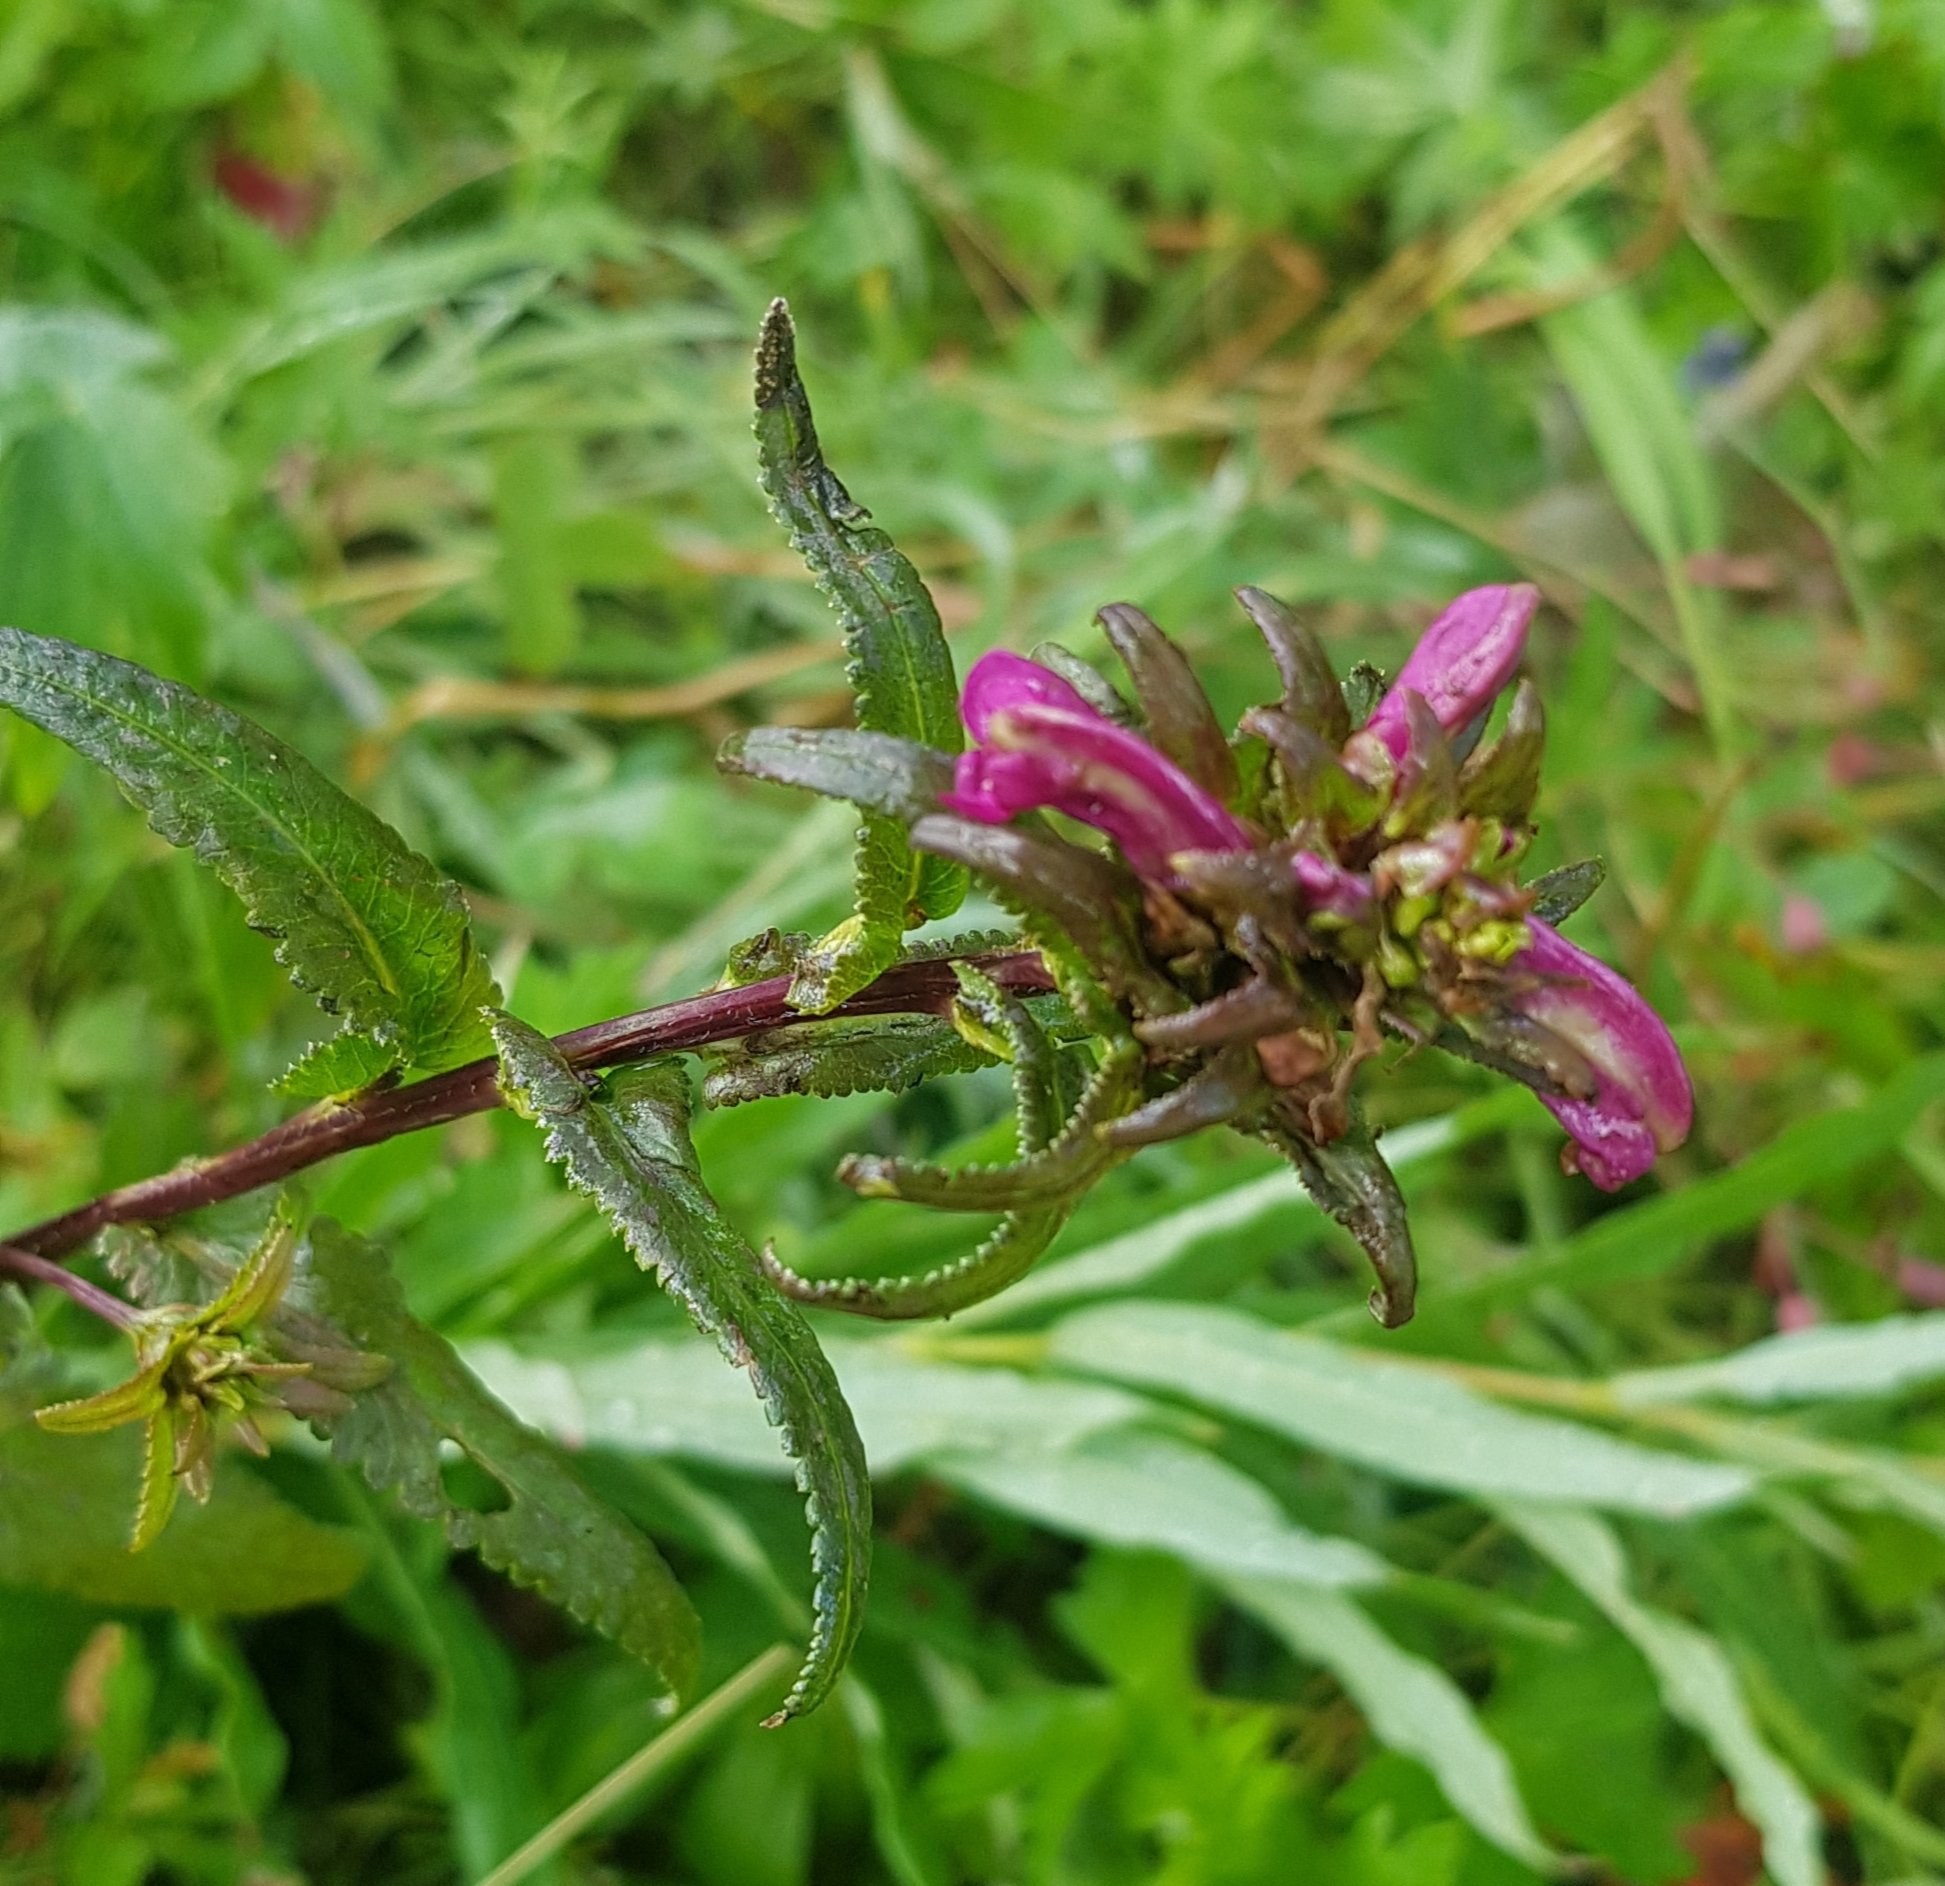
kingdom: Plantae
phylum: Tracheophyta
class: Magnoliopsida
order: Lamiales
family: Orobanchaceae
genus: Pedicularis
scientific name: Pedicularis resupinata
